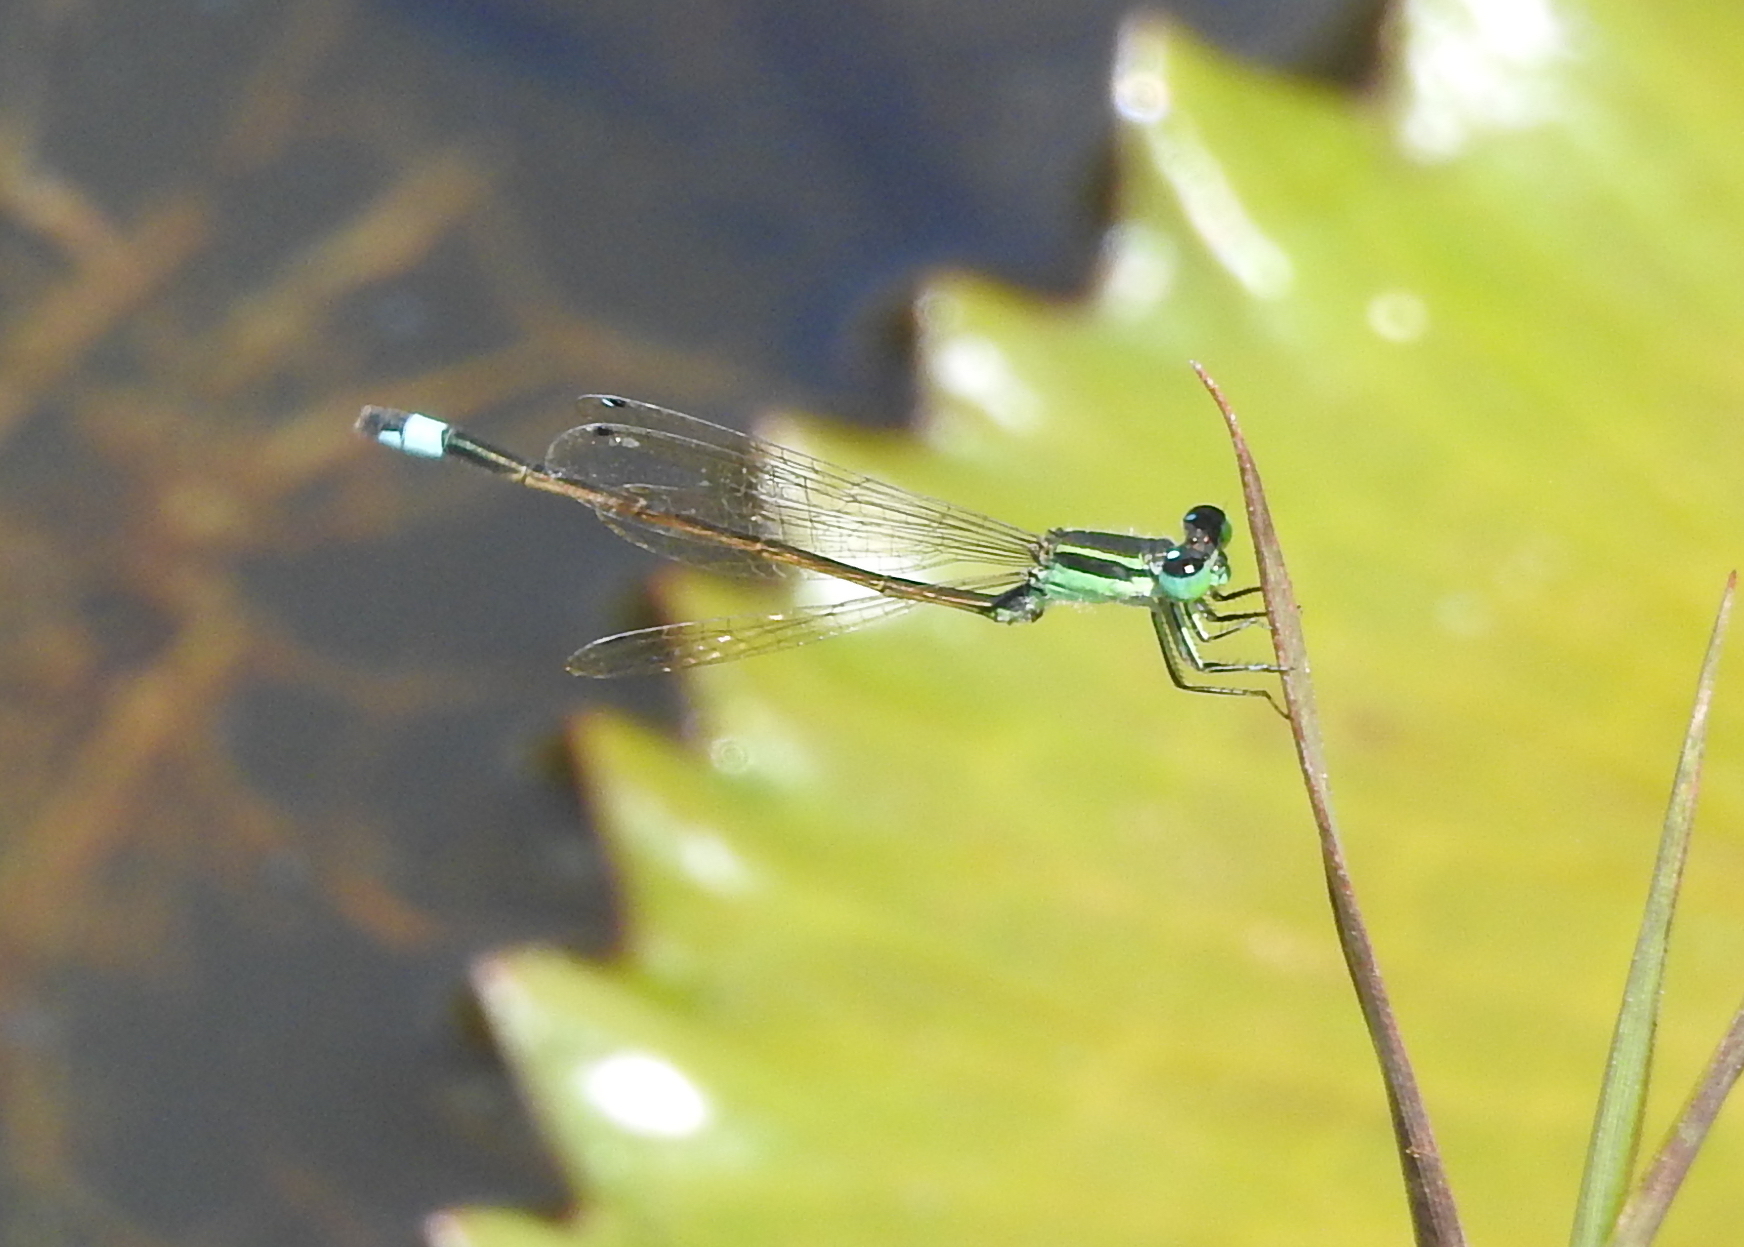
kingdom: Animalia
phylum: Arthropoda
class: Insecta
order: Odonata
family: Coenagrionidae
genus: Ischnura
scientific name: Ischnura senegalensis
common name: Tropical bluetail
